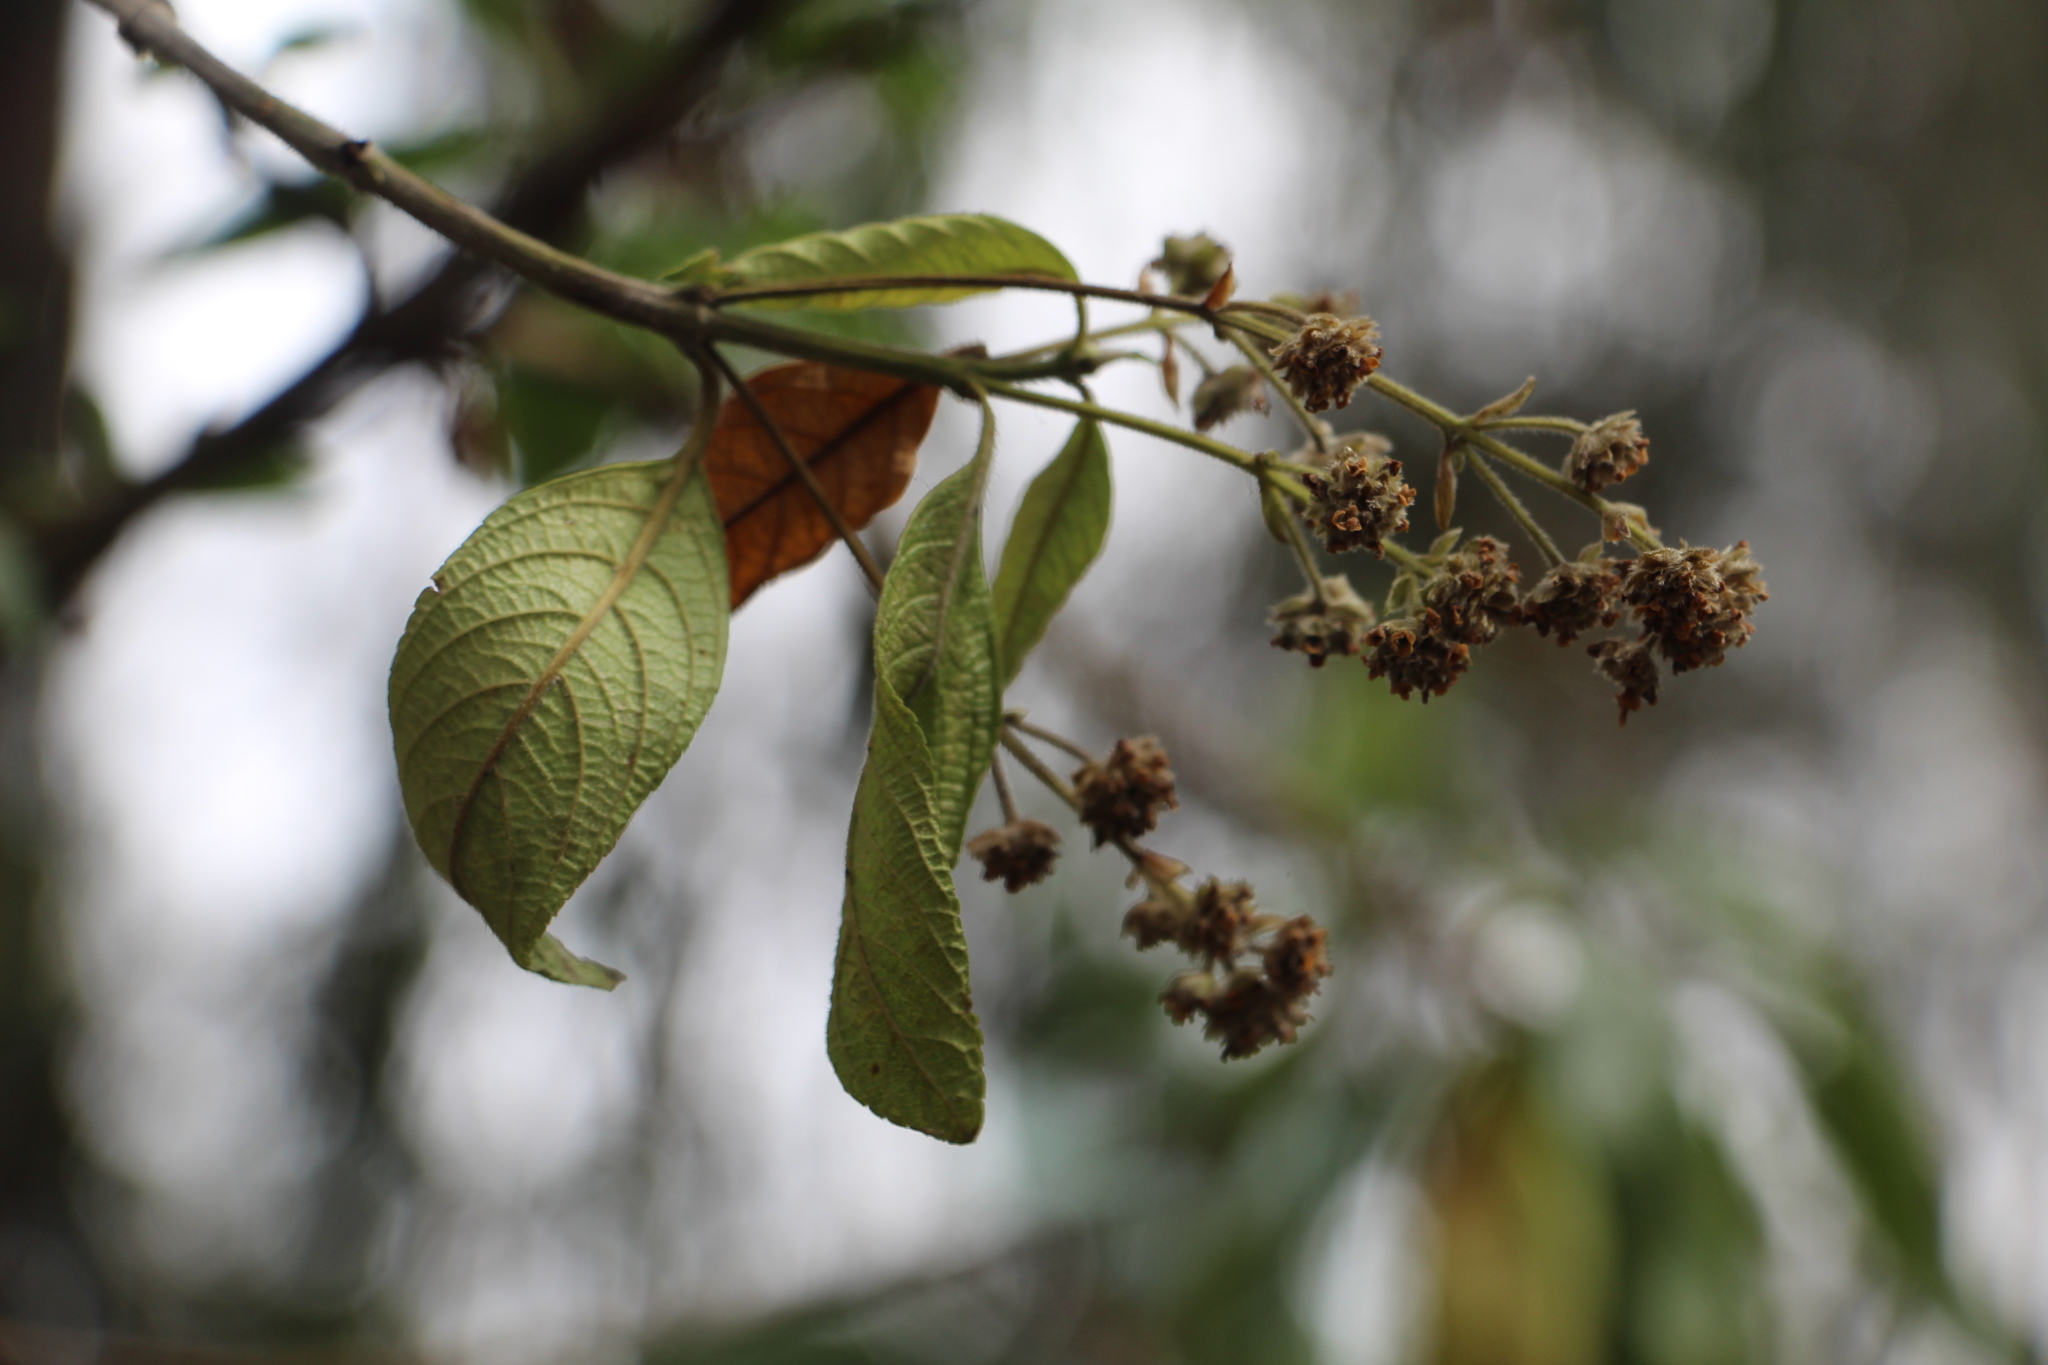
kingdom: Plantae
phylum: Tracheophyta
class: Magnoliopsida
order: Lamiales
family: Verbenaceae
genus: Lippia
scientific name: Lippia hirsuta
